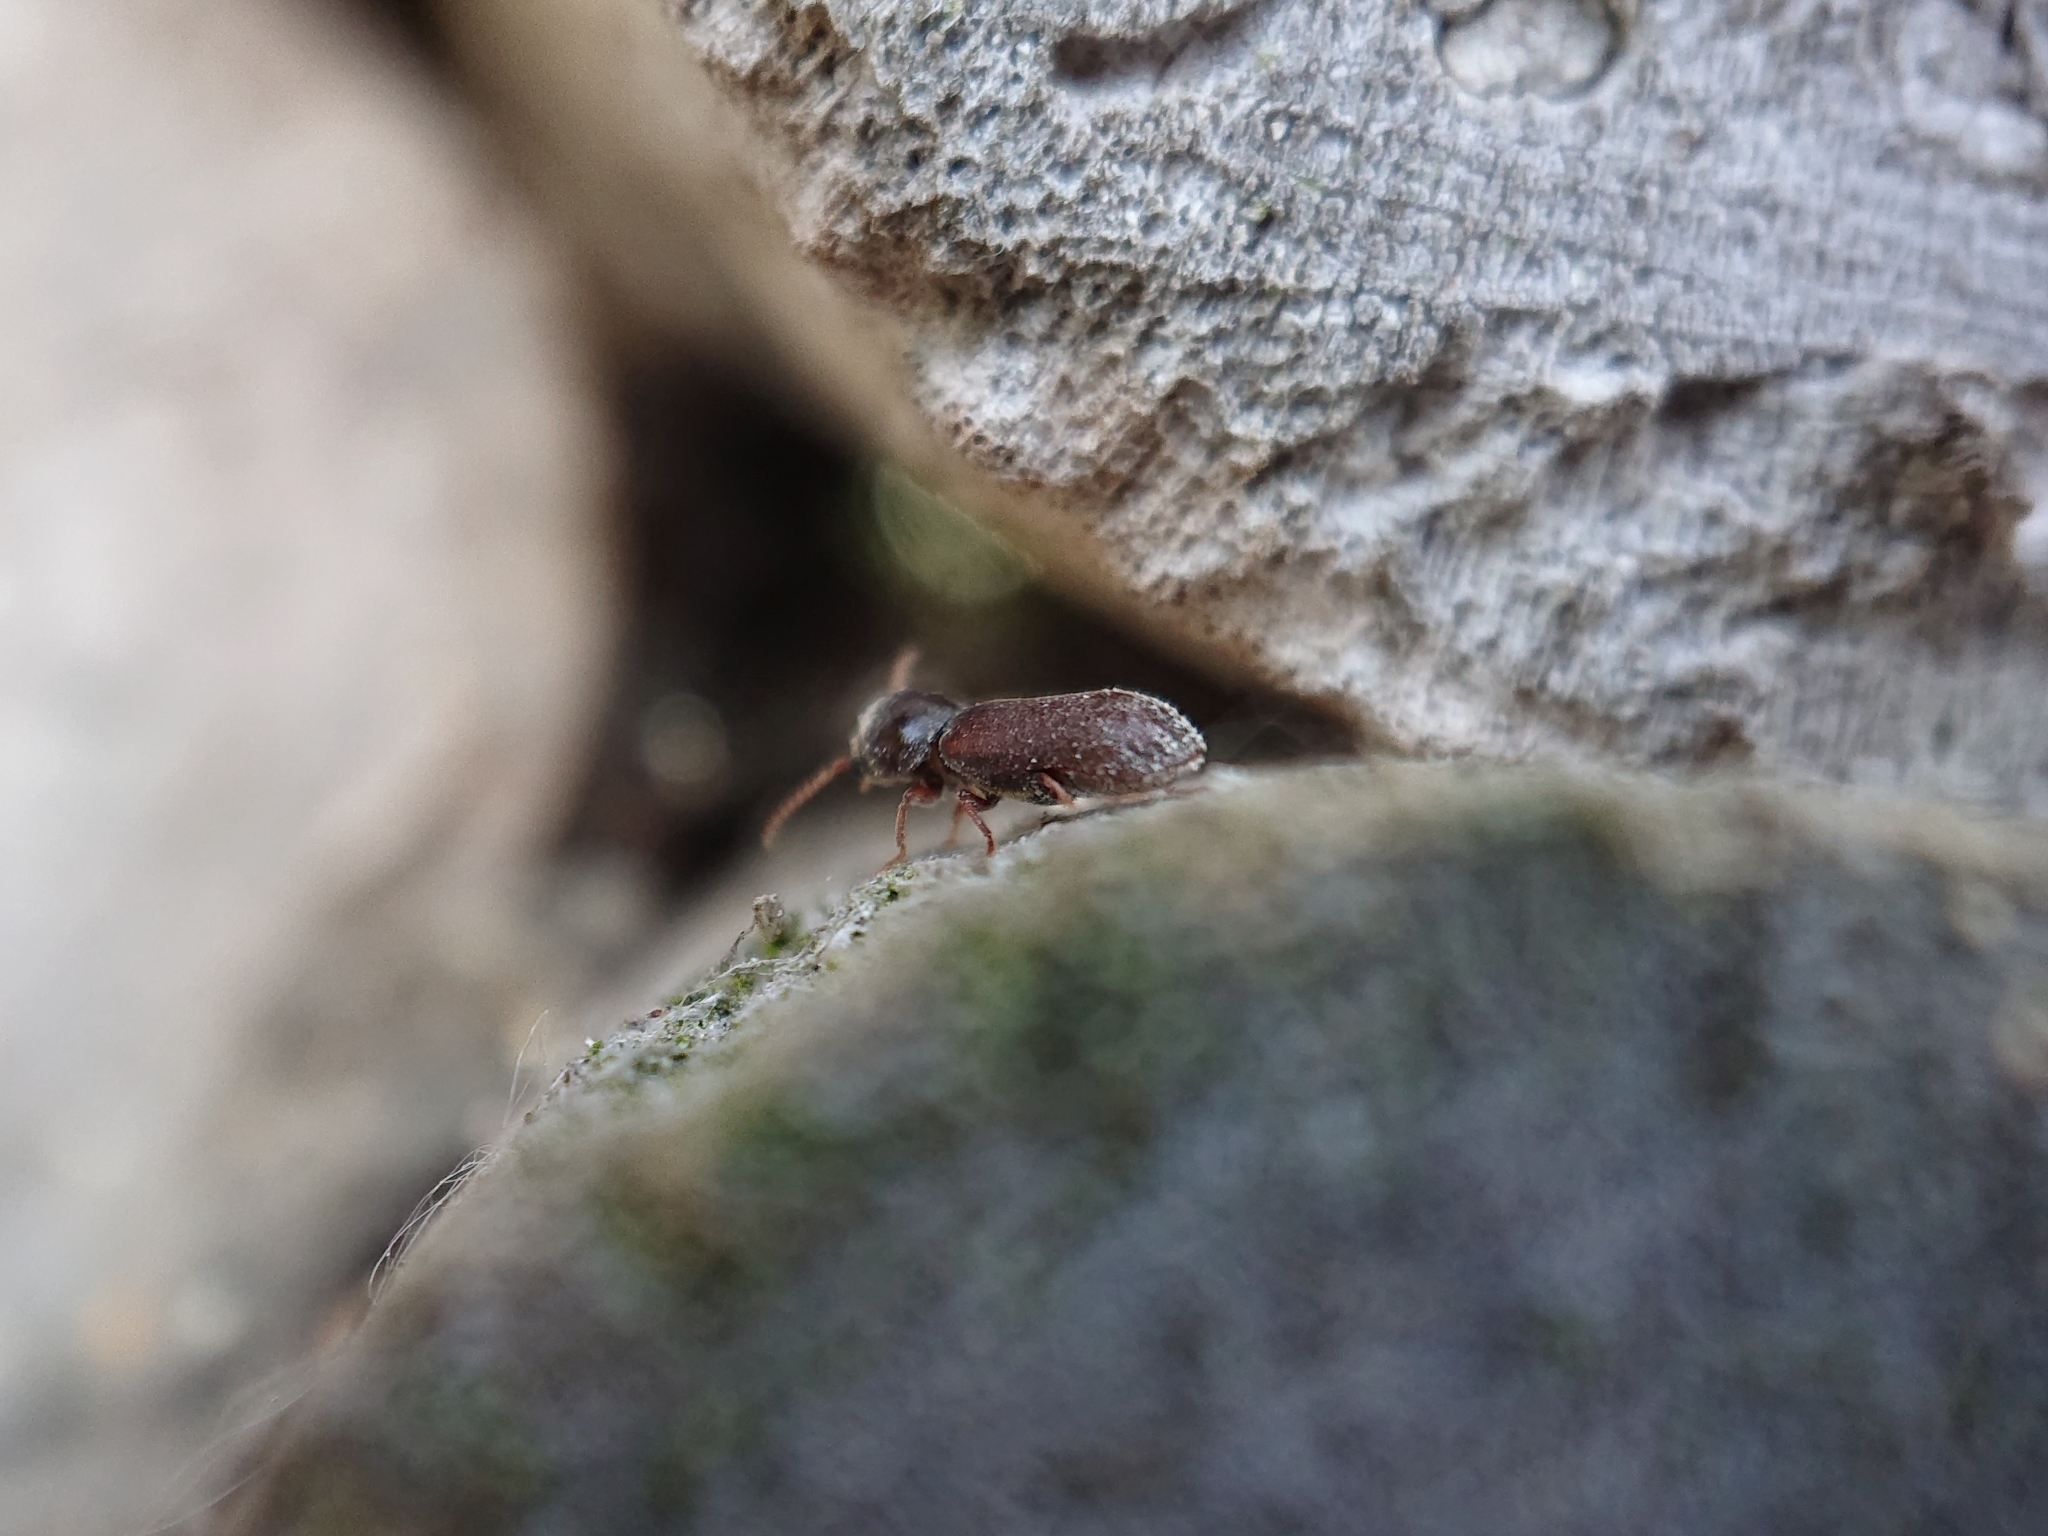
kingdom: Animalia
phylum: Arthropoda
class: Insecta
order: Coleoptera
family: Anobiidae
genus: Ptilinus
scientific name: Ptilinus pectinicornis
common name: Fan-bearing wood-borer
